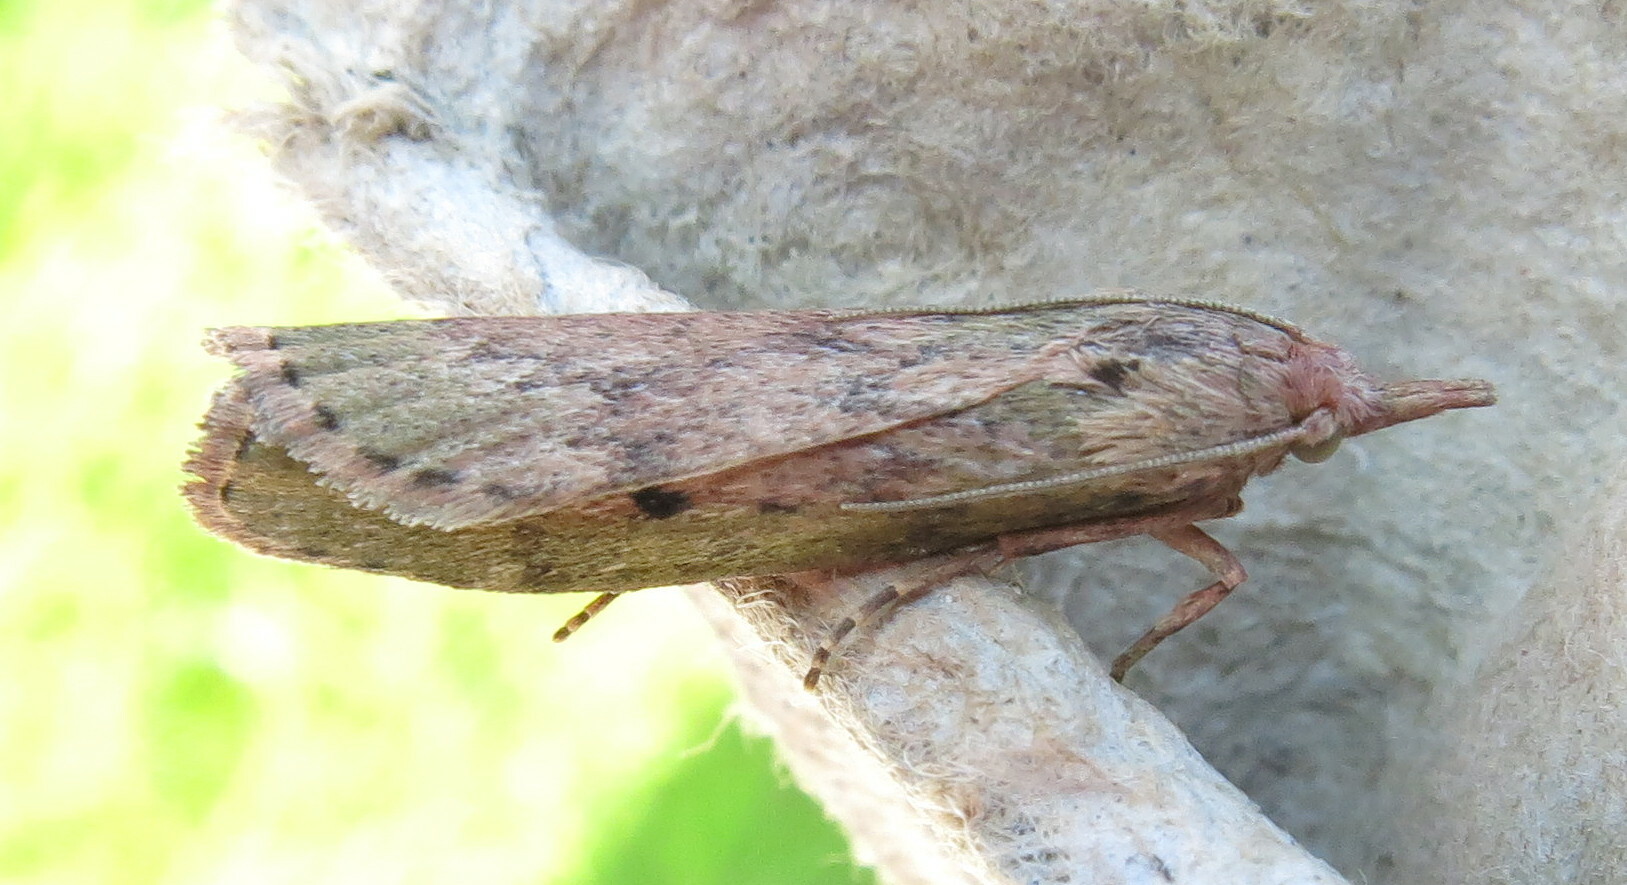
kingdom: Animalia
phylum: Arthropoda
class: Insecta
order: Lepidoptera
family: Pyralidae
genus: Aphomia
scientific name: Aphomia sociella
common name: Bee moth
